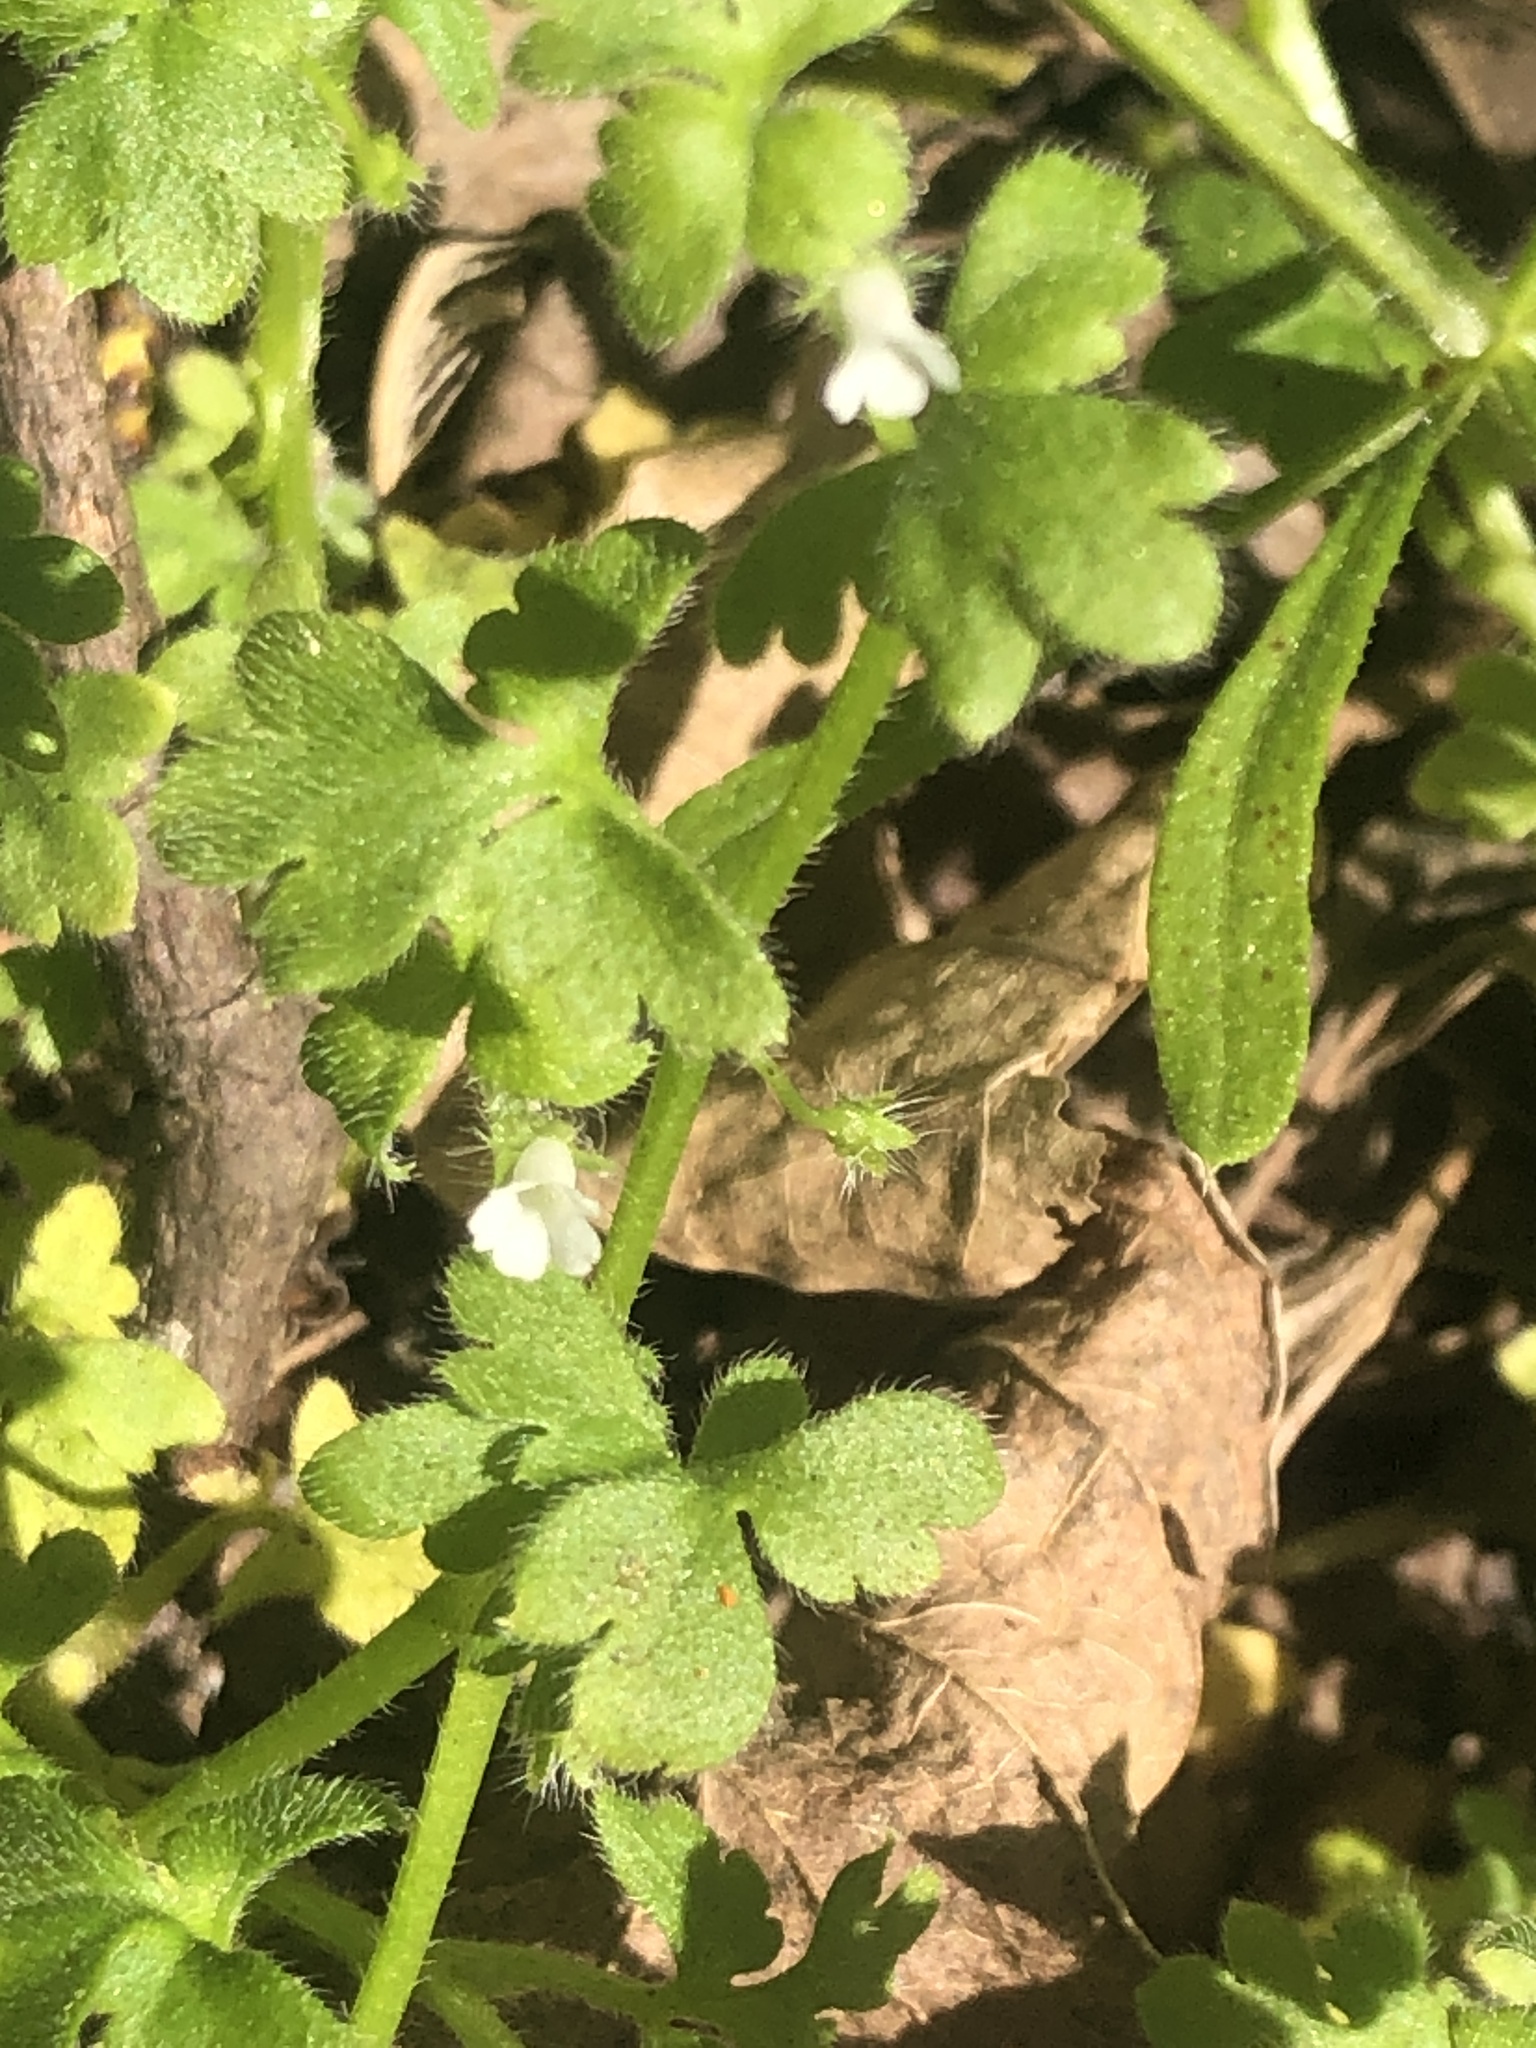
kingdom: Plantae
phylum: Tracheophyta
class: Magnoliopsida
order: Boraginales
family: Hydrophyllaceae
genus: Nemophila
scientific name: Nemophila aphylla
